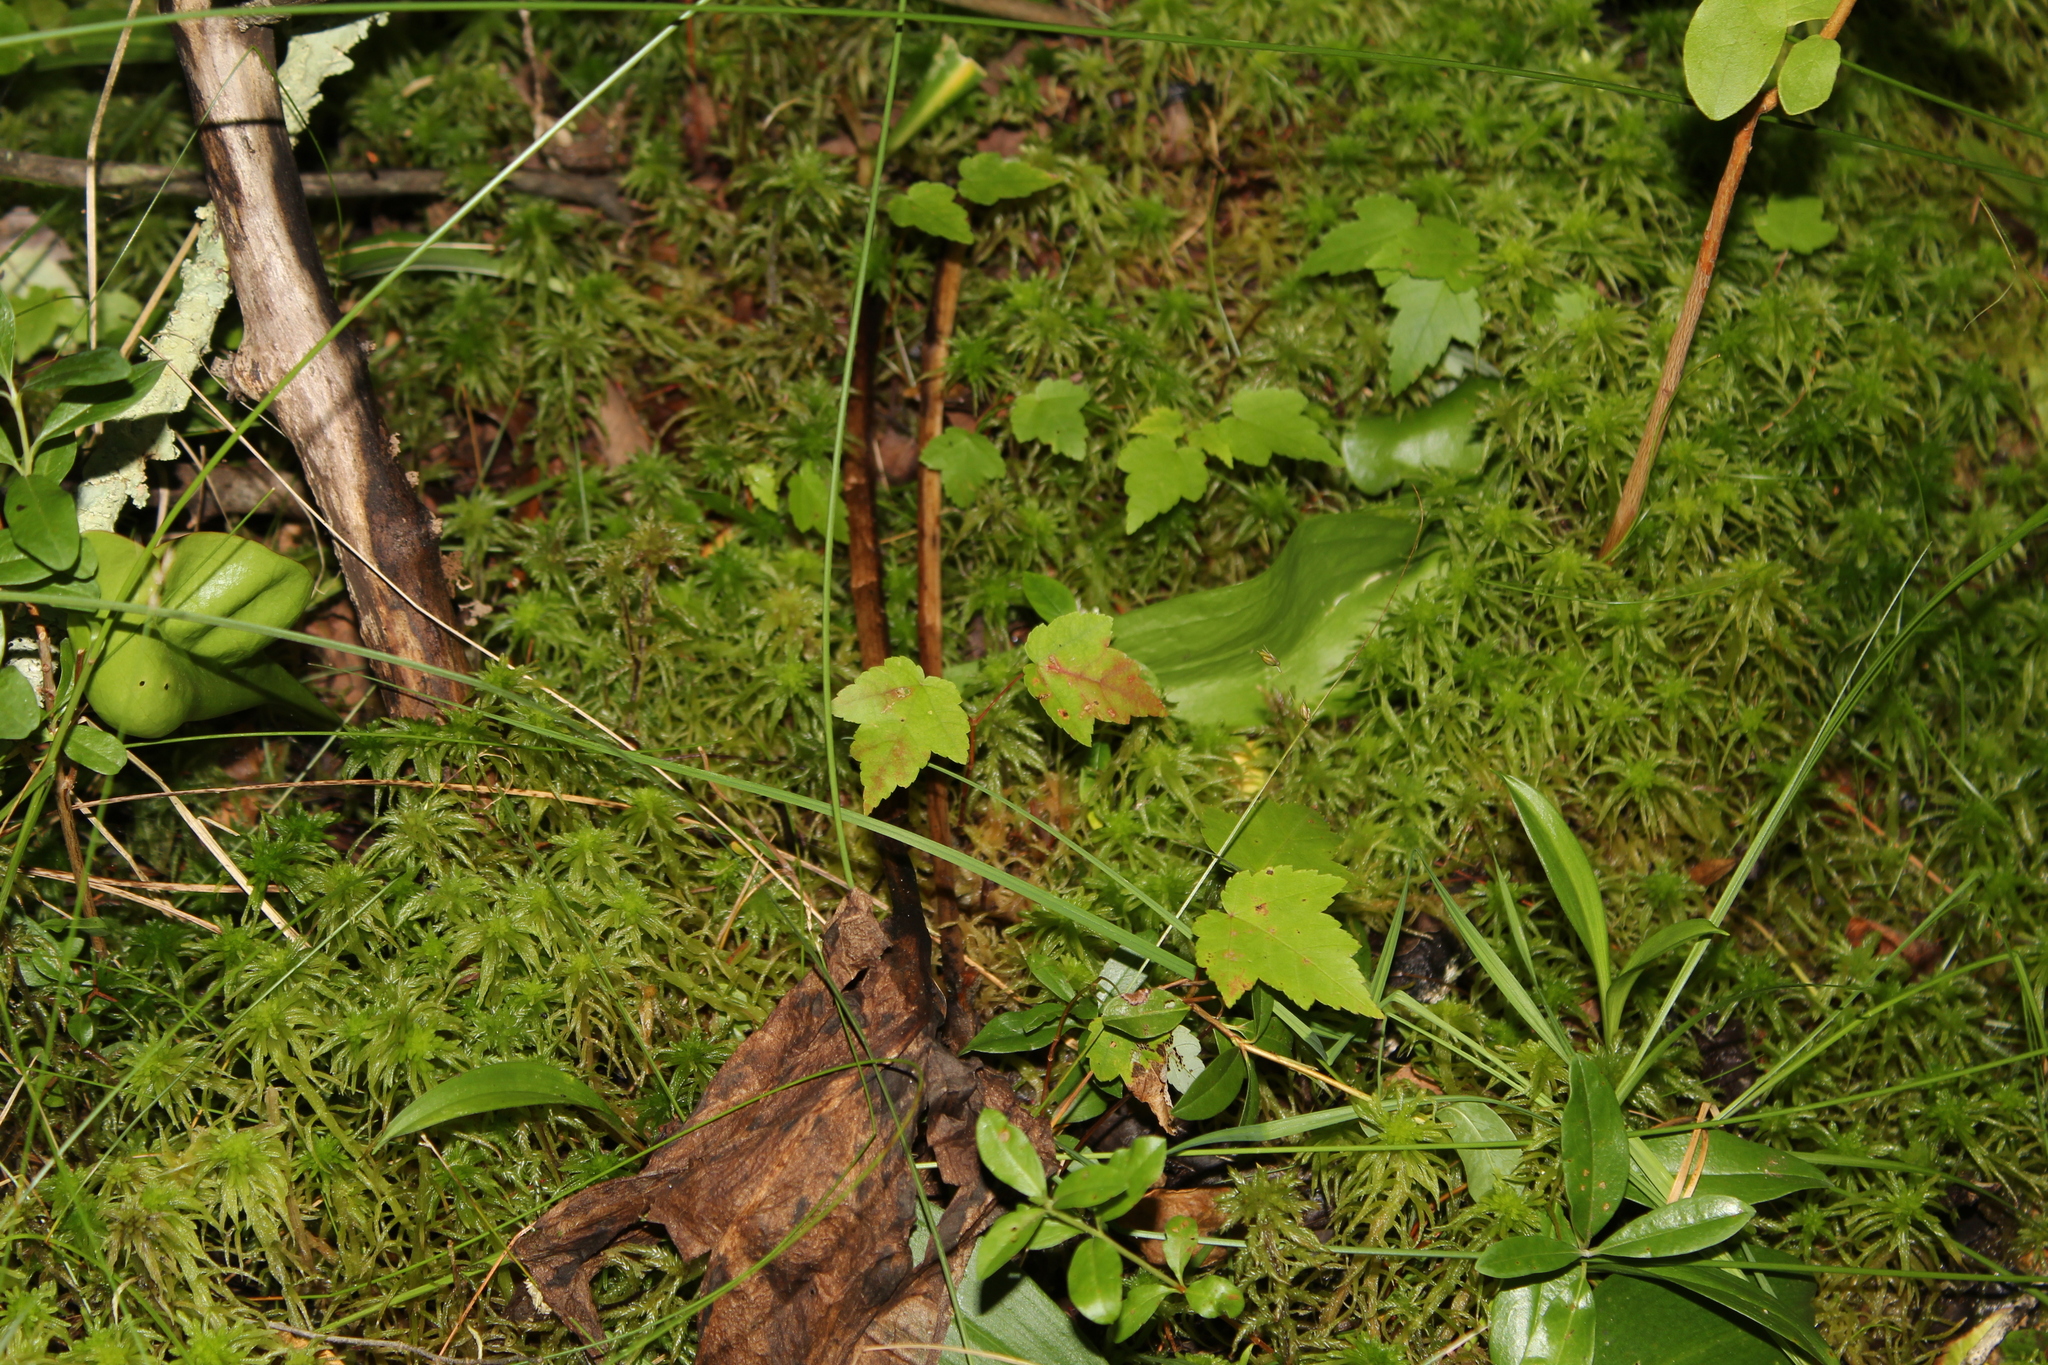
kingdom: Plantae
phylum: Tracheophyta
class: Magnoliopsida
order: Sapindales
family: Sapindaceae
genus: Acer
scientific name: Acer rubrum
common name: Red maple
